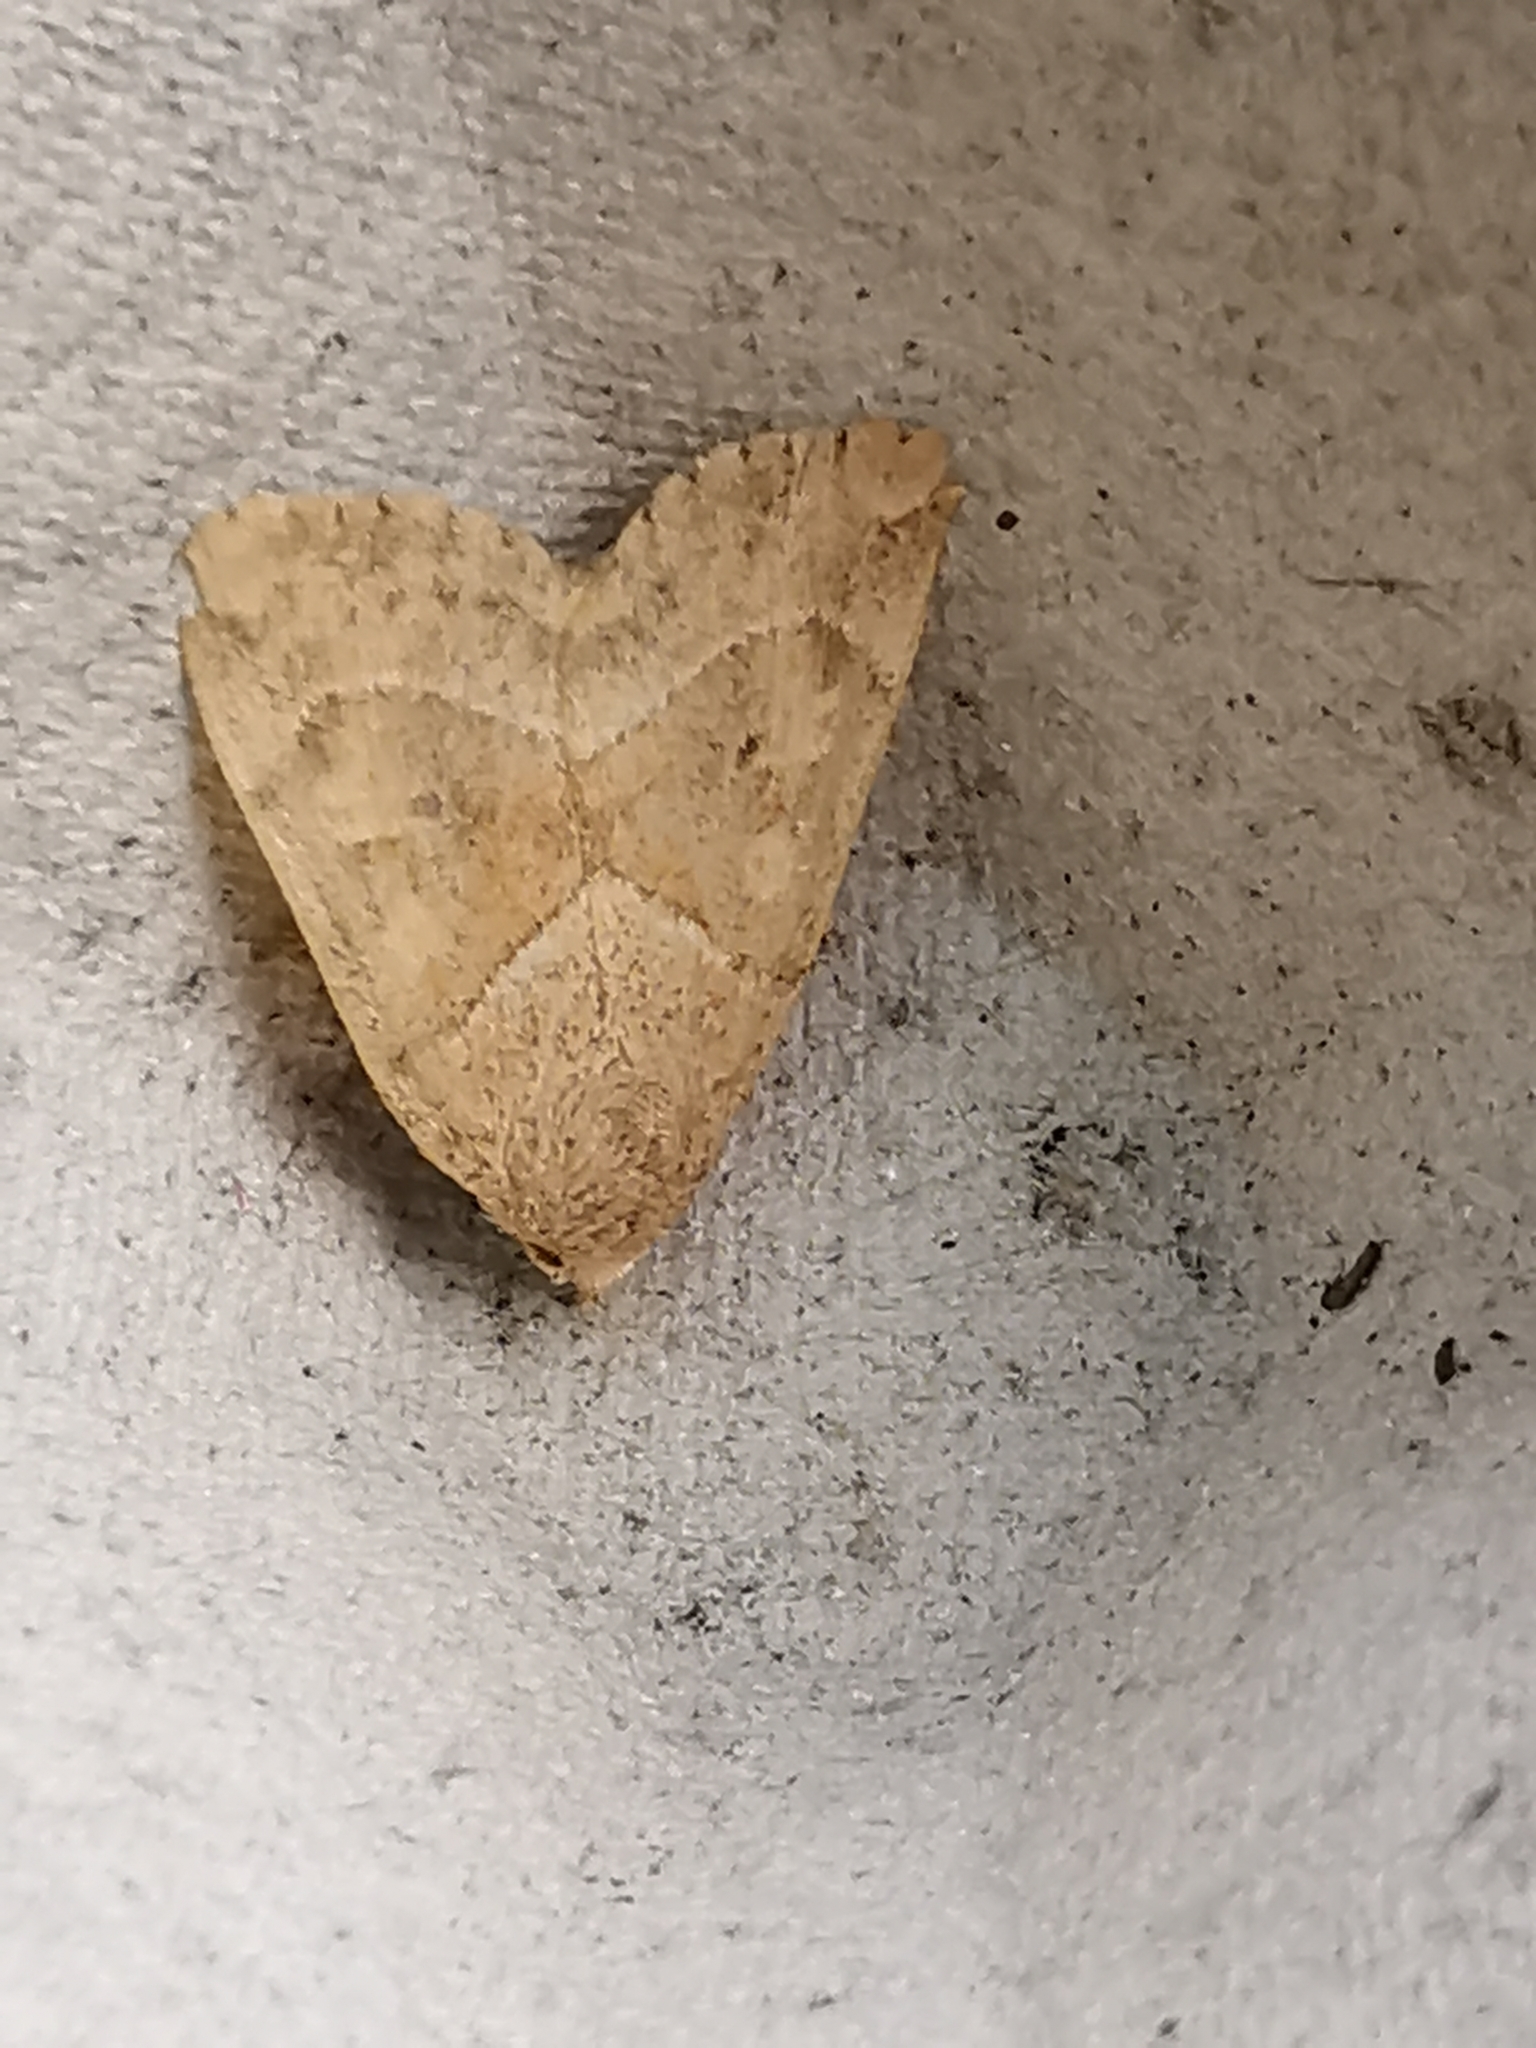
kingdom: Animalia
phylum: Arthropoda
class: Insecta
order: Lepidoptera
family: Noctuidae
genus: Cosmia
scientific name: Cosmia trapezina
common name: Dun-bar
